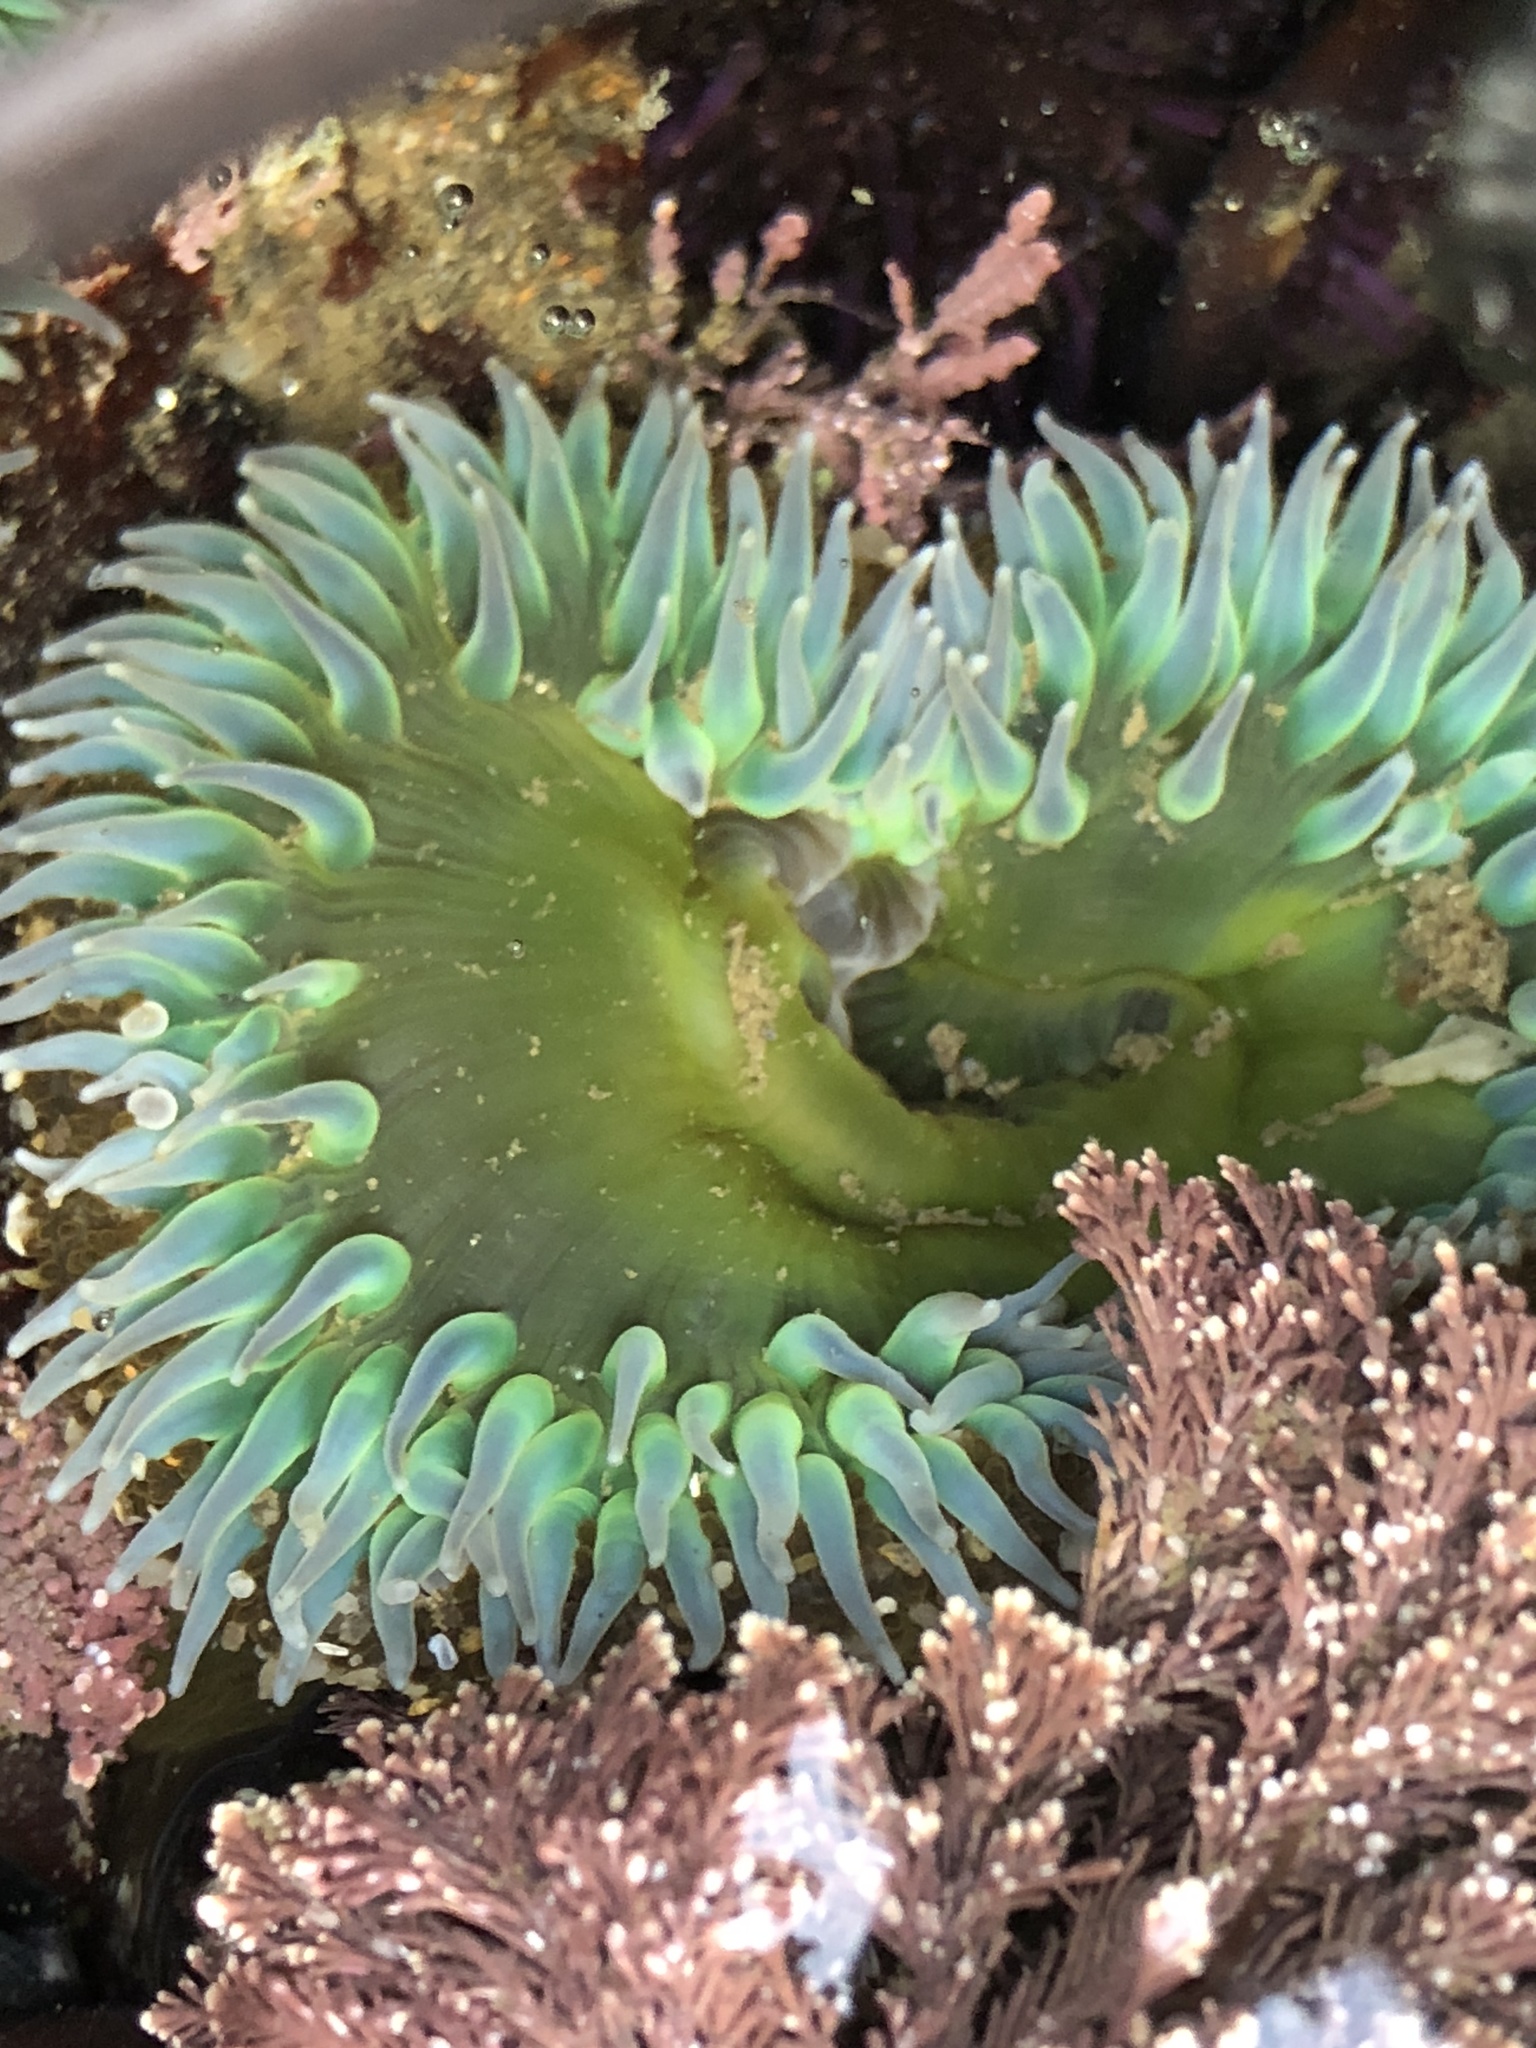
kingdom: Animalia
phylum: Cnidaria
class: Anthozoa
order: Actiniaria
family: Actiniidae
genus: Anthopleura
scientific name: Anthopleura xanthogrammica
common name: Giant green anemone
